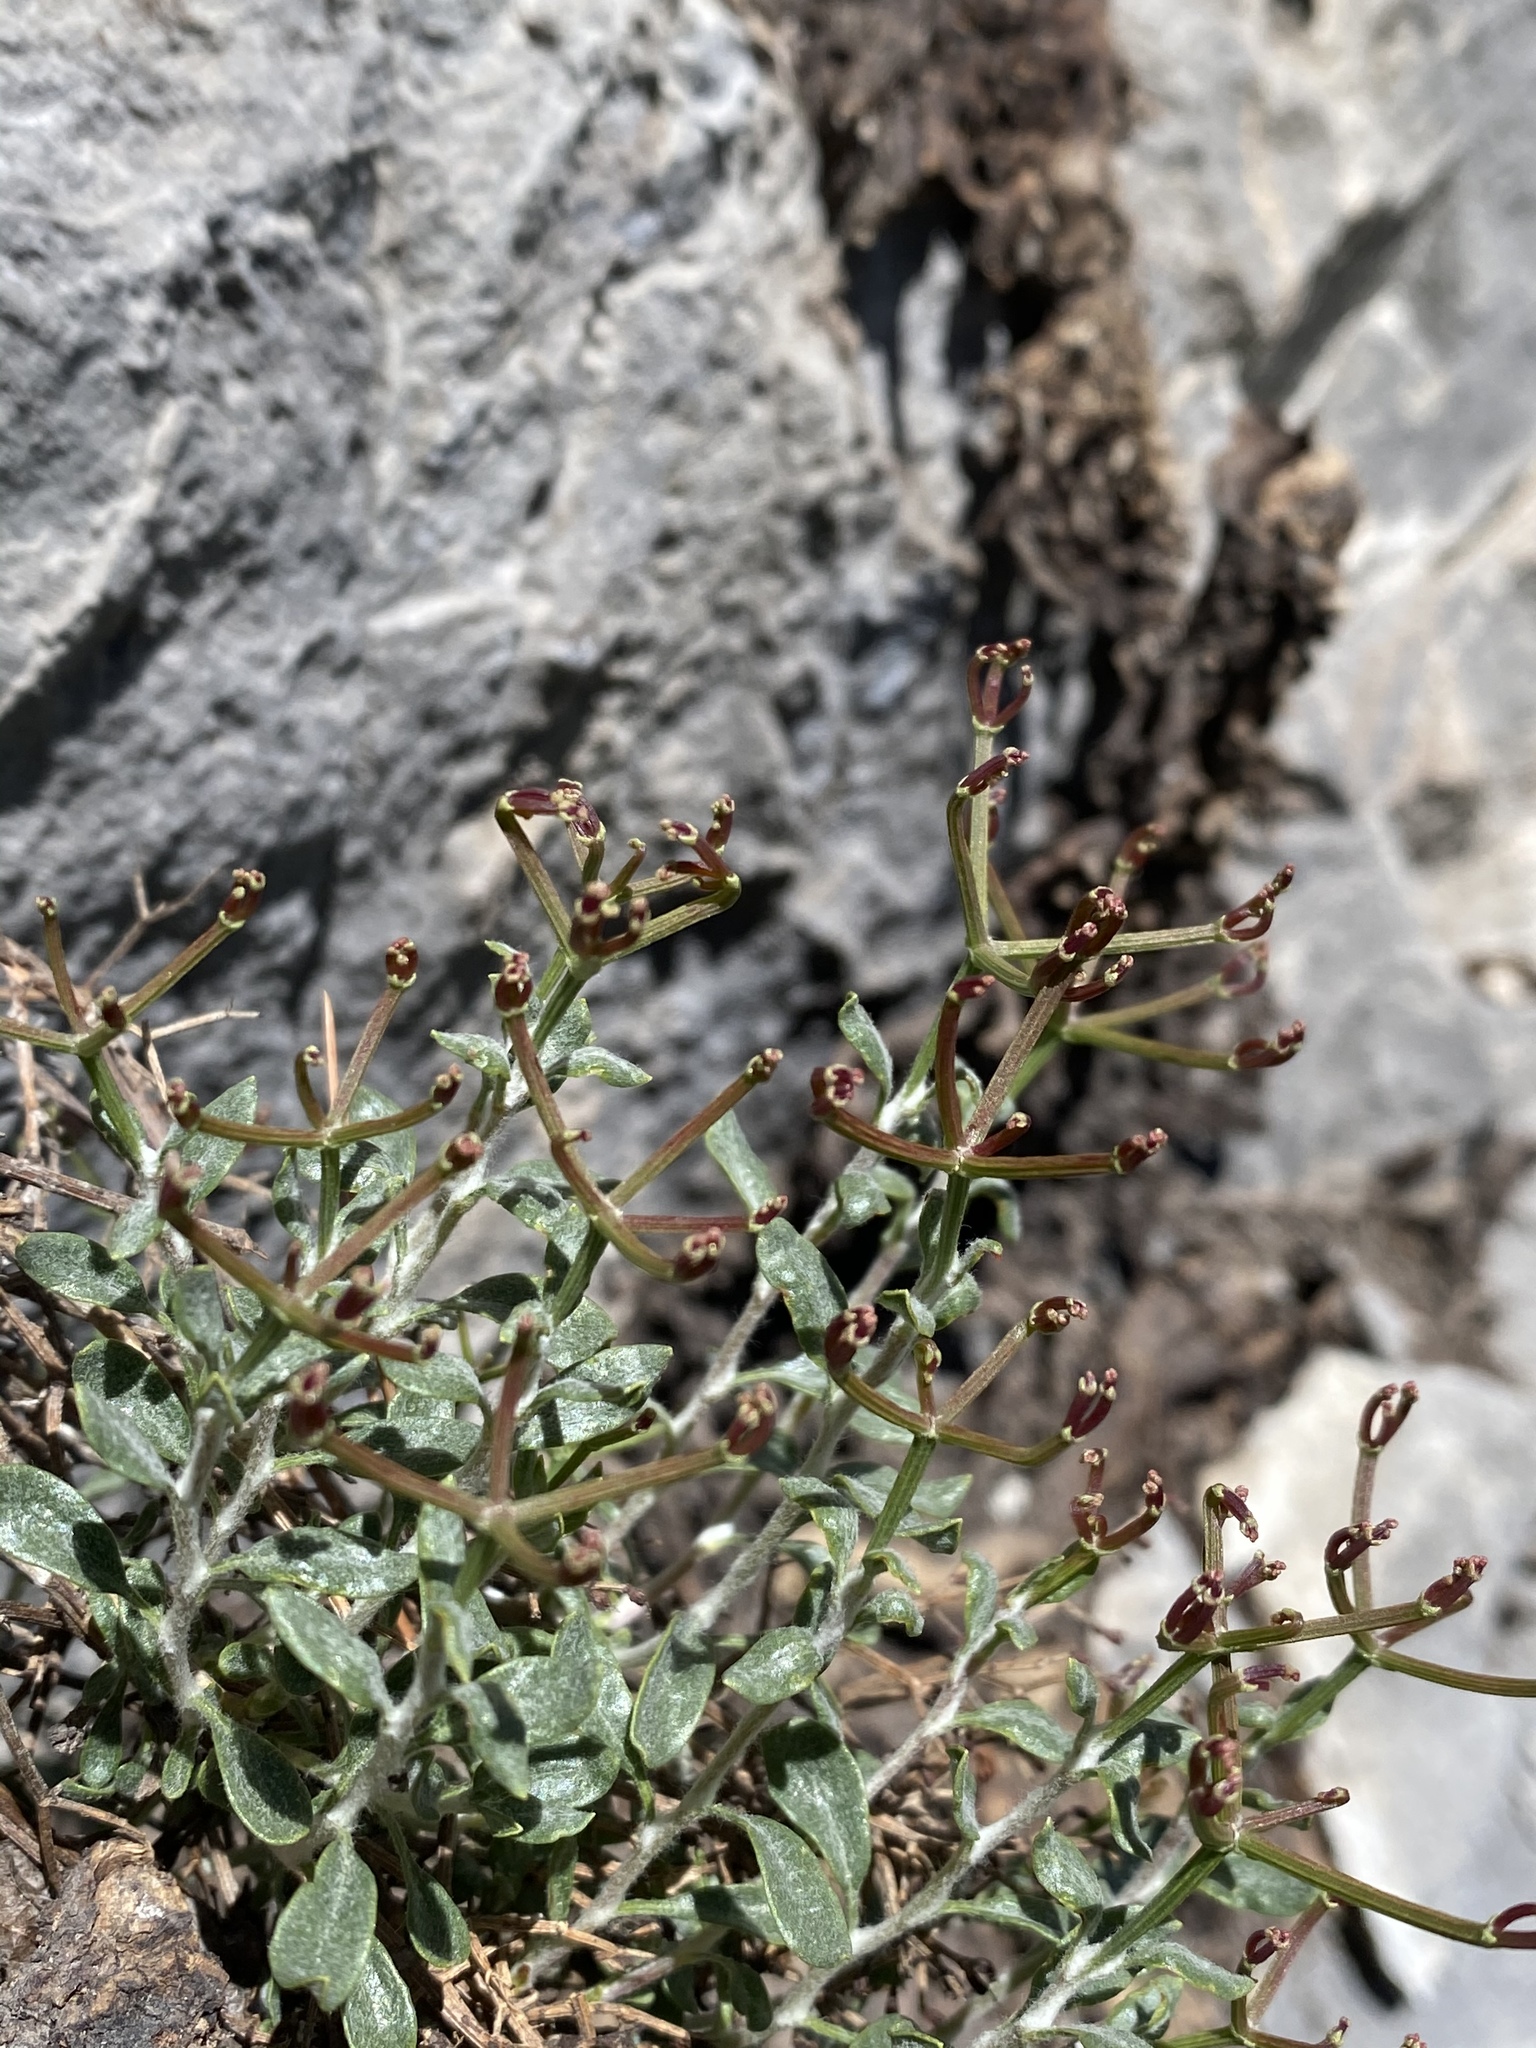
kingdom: Plantae
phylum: Tracheophyta
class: Magnoliopsida
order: Caryophyllales
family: Polygonaceae
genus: Eriogonum
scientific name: Eriogonum heermannii
